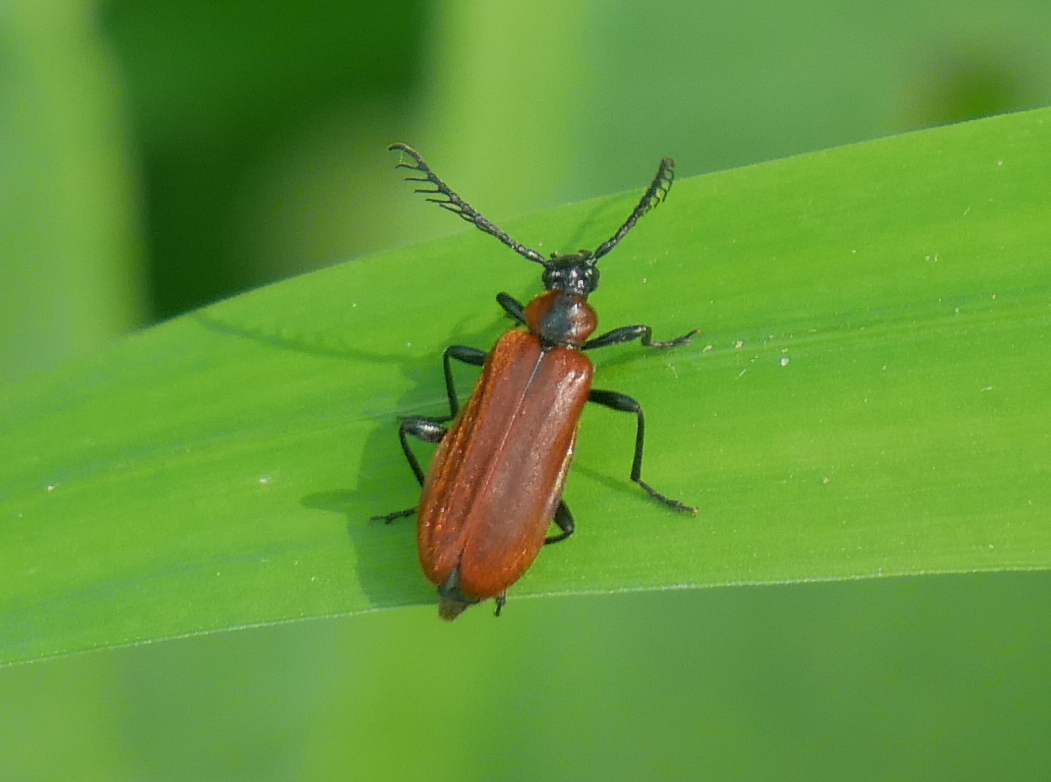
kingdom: Animalia
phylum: Arthropoda
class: Insecta
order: Coleoptera
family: Pyrochroidae
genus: Schizotus
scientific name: Schizotus pectinicornis
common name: Scarce cardinal beetle
